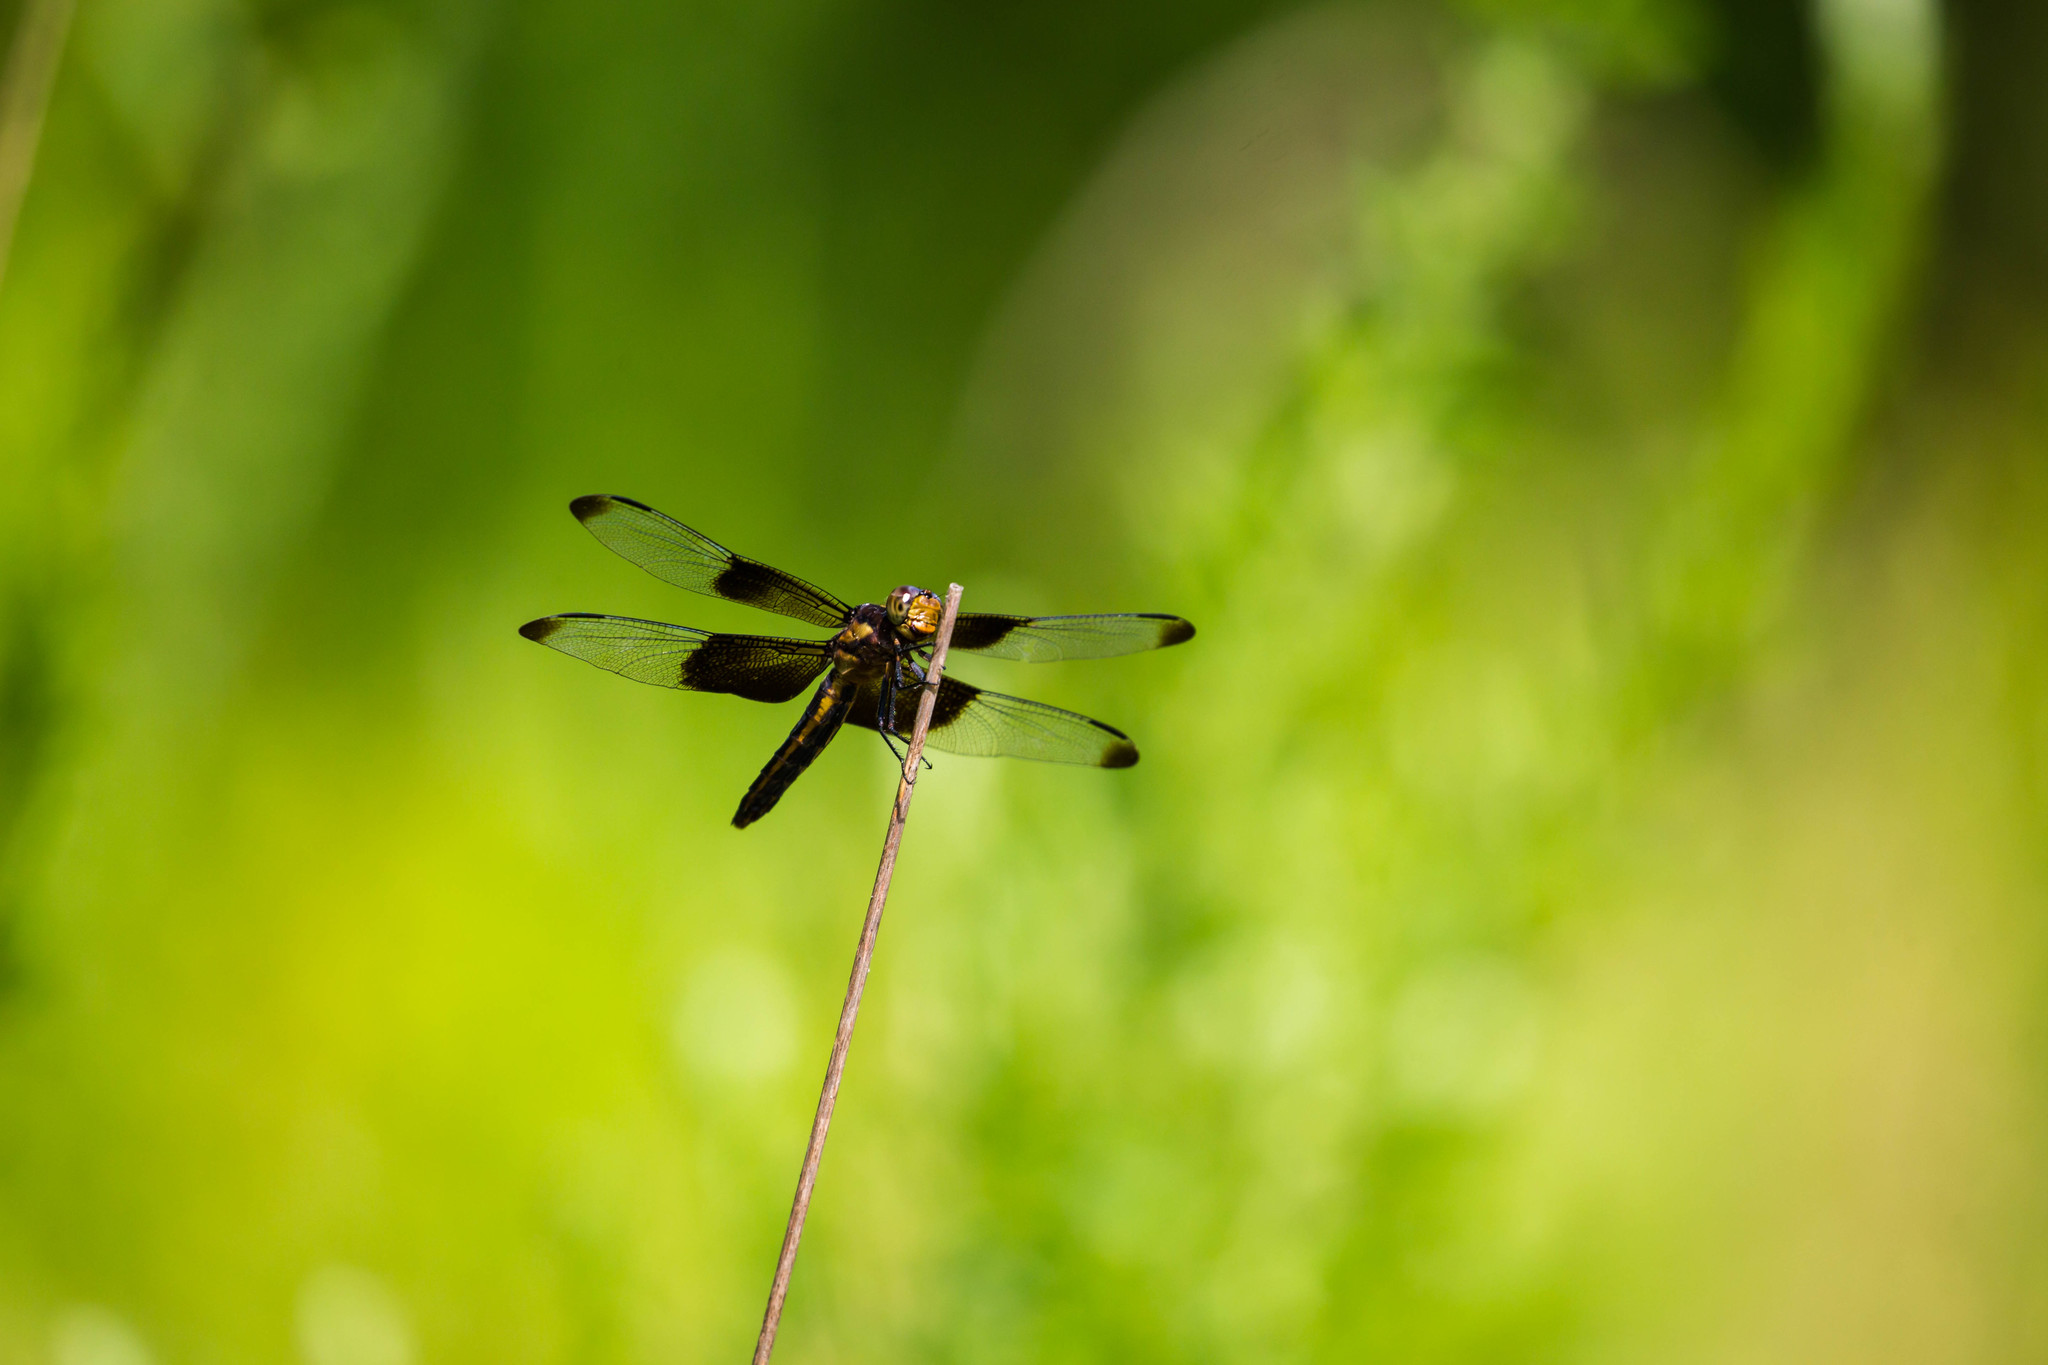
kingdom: Animalia
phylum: Arthropoda
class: Insecta
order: Odonata
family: Libellulidae
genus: Libellula
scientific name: Libellula luctuosa
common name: Widow skimmer
